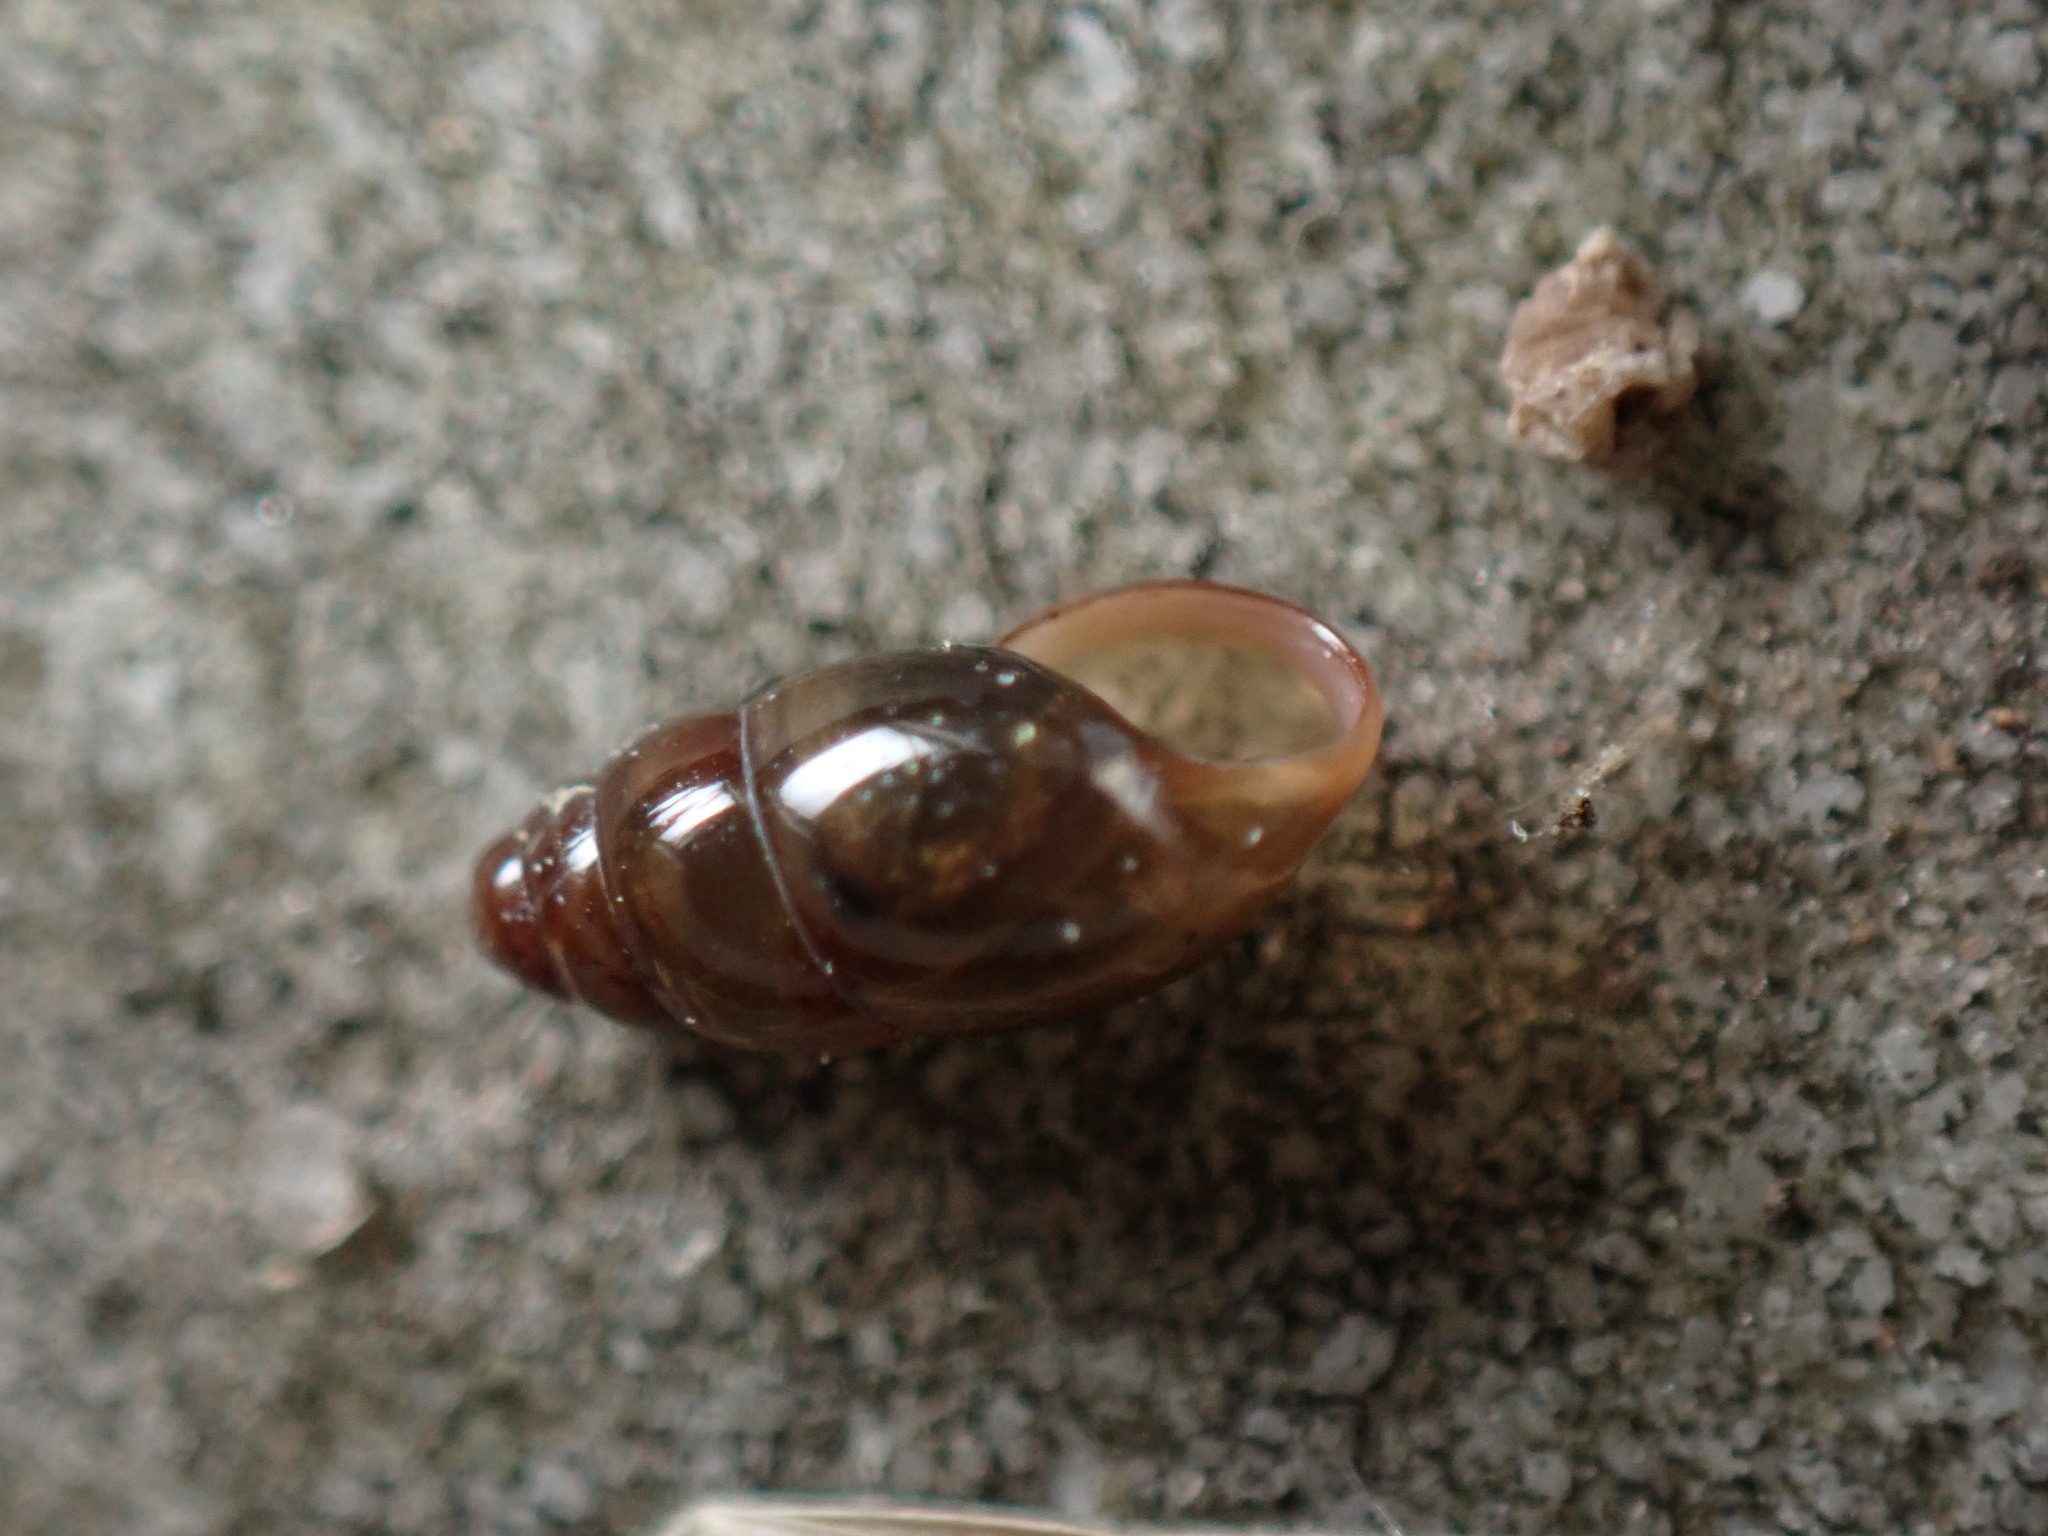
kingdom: Animalia
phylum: Mollusca
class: Gastropoda
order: Stylommatophora
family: Cochlicopidae
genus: Cochlicopa
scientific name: Cochlicopa lubrica
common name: Glossy pillar snail
